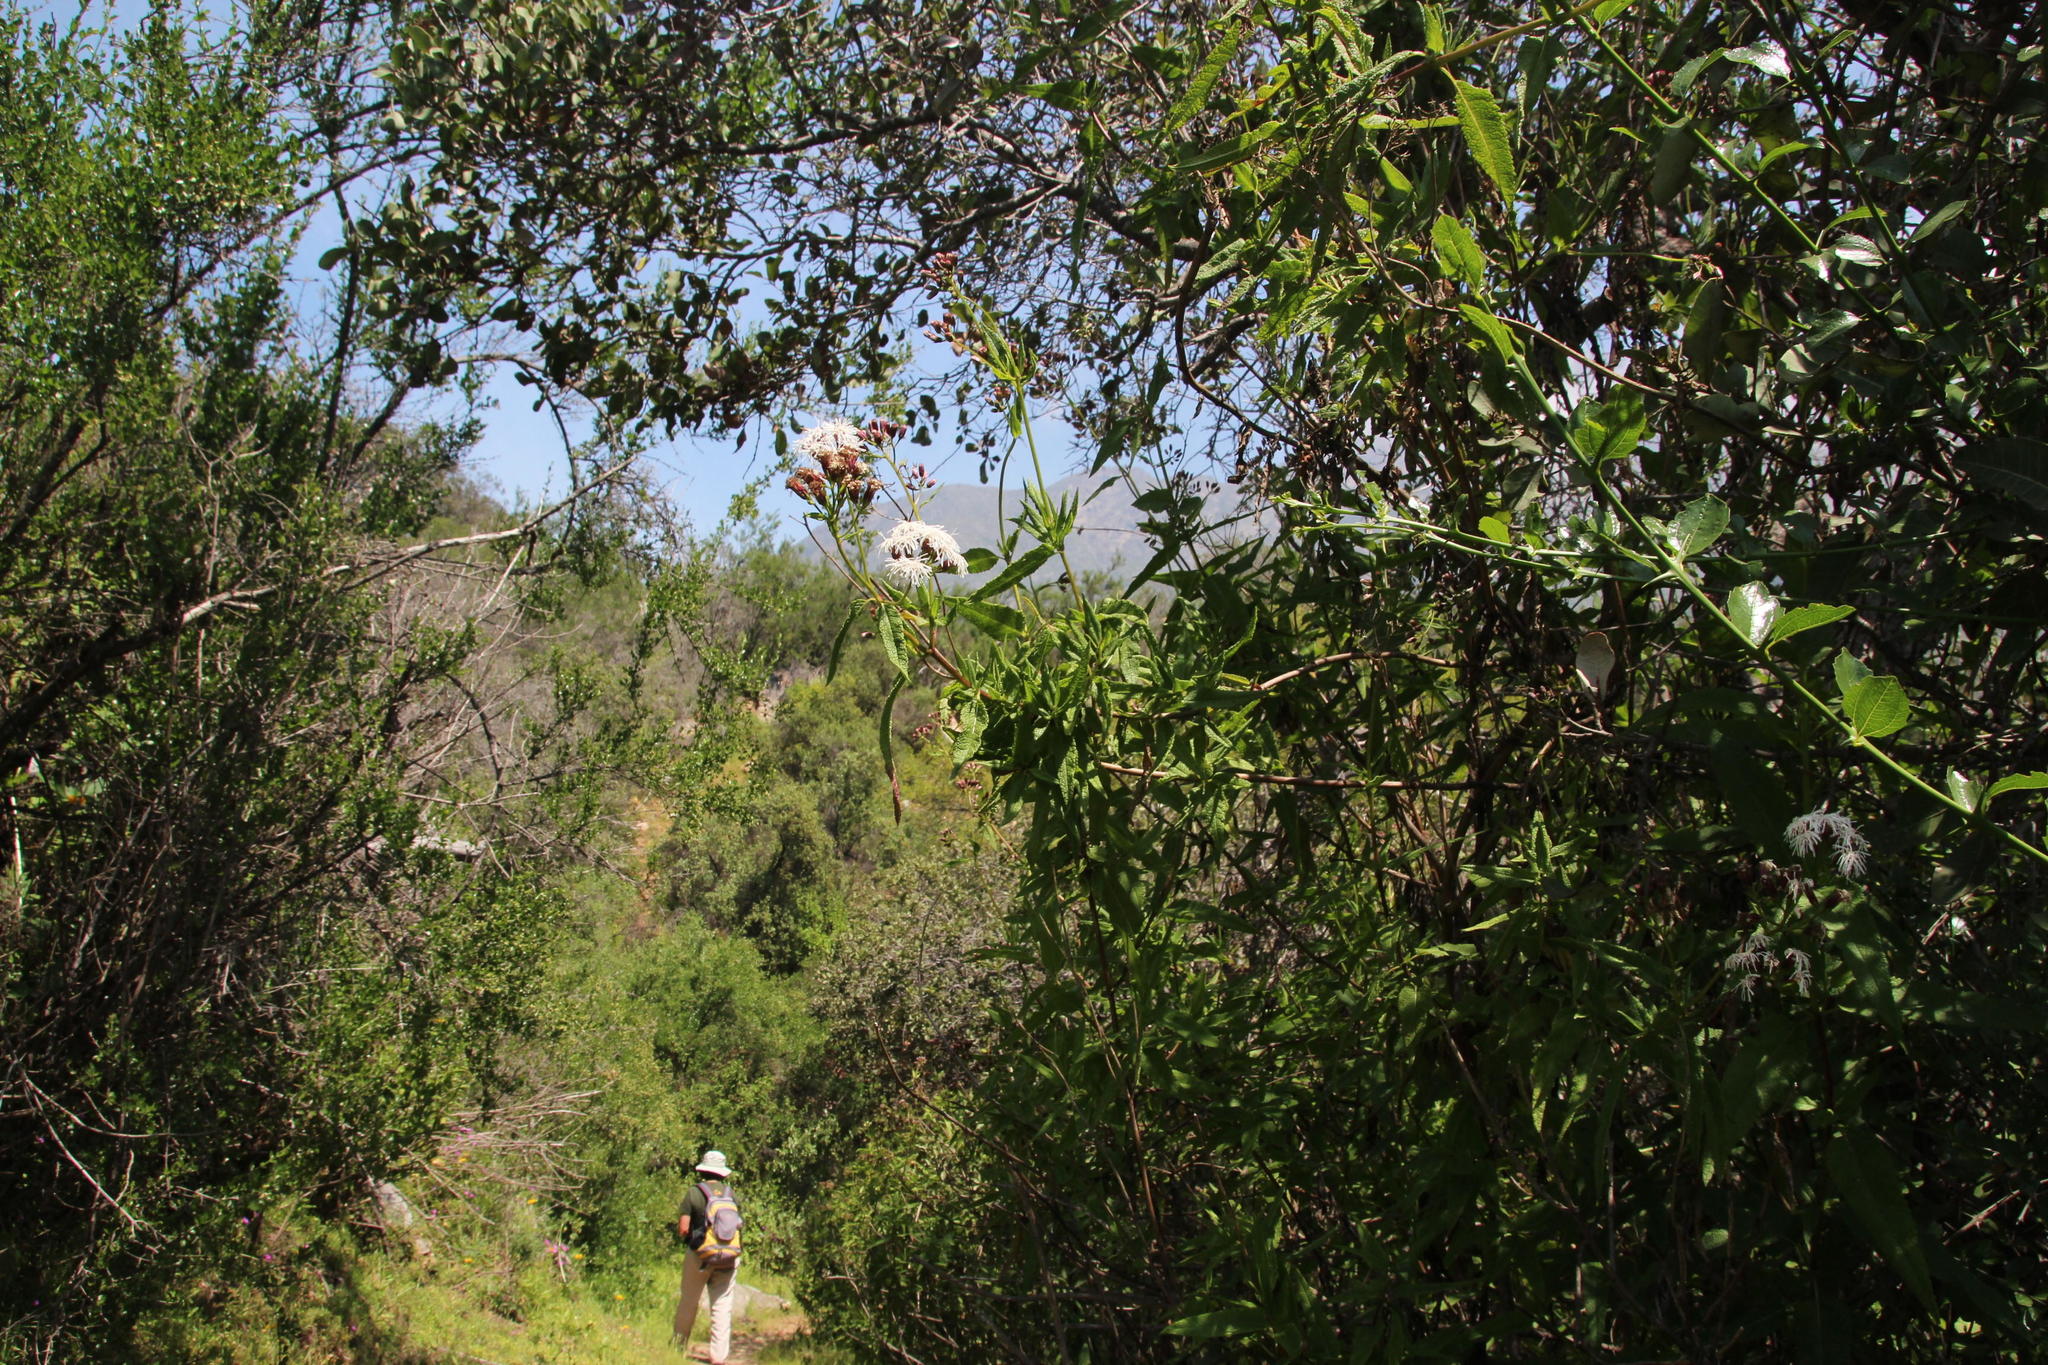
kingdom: Plantae
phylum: Tracheophyta
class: Magnoliopsida
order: Asterales
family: Asteraceae
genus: Aristeguietia
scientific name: Aristeguietia salvia
